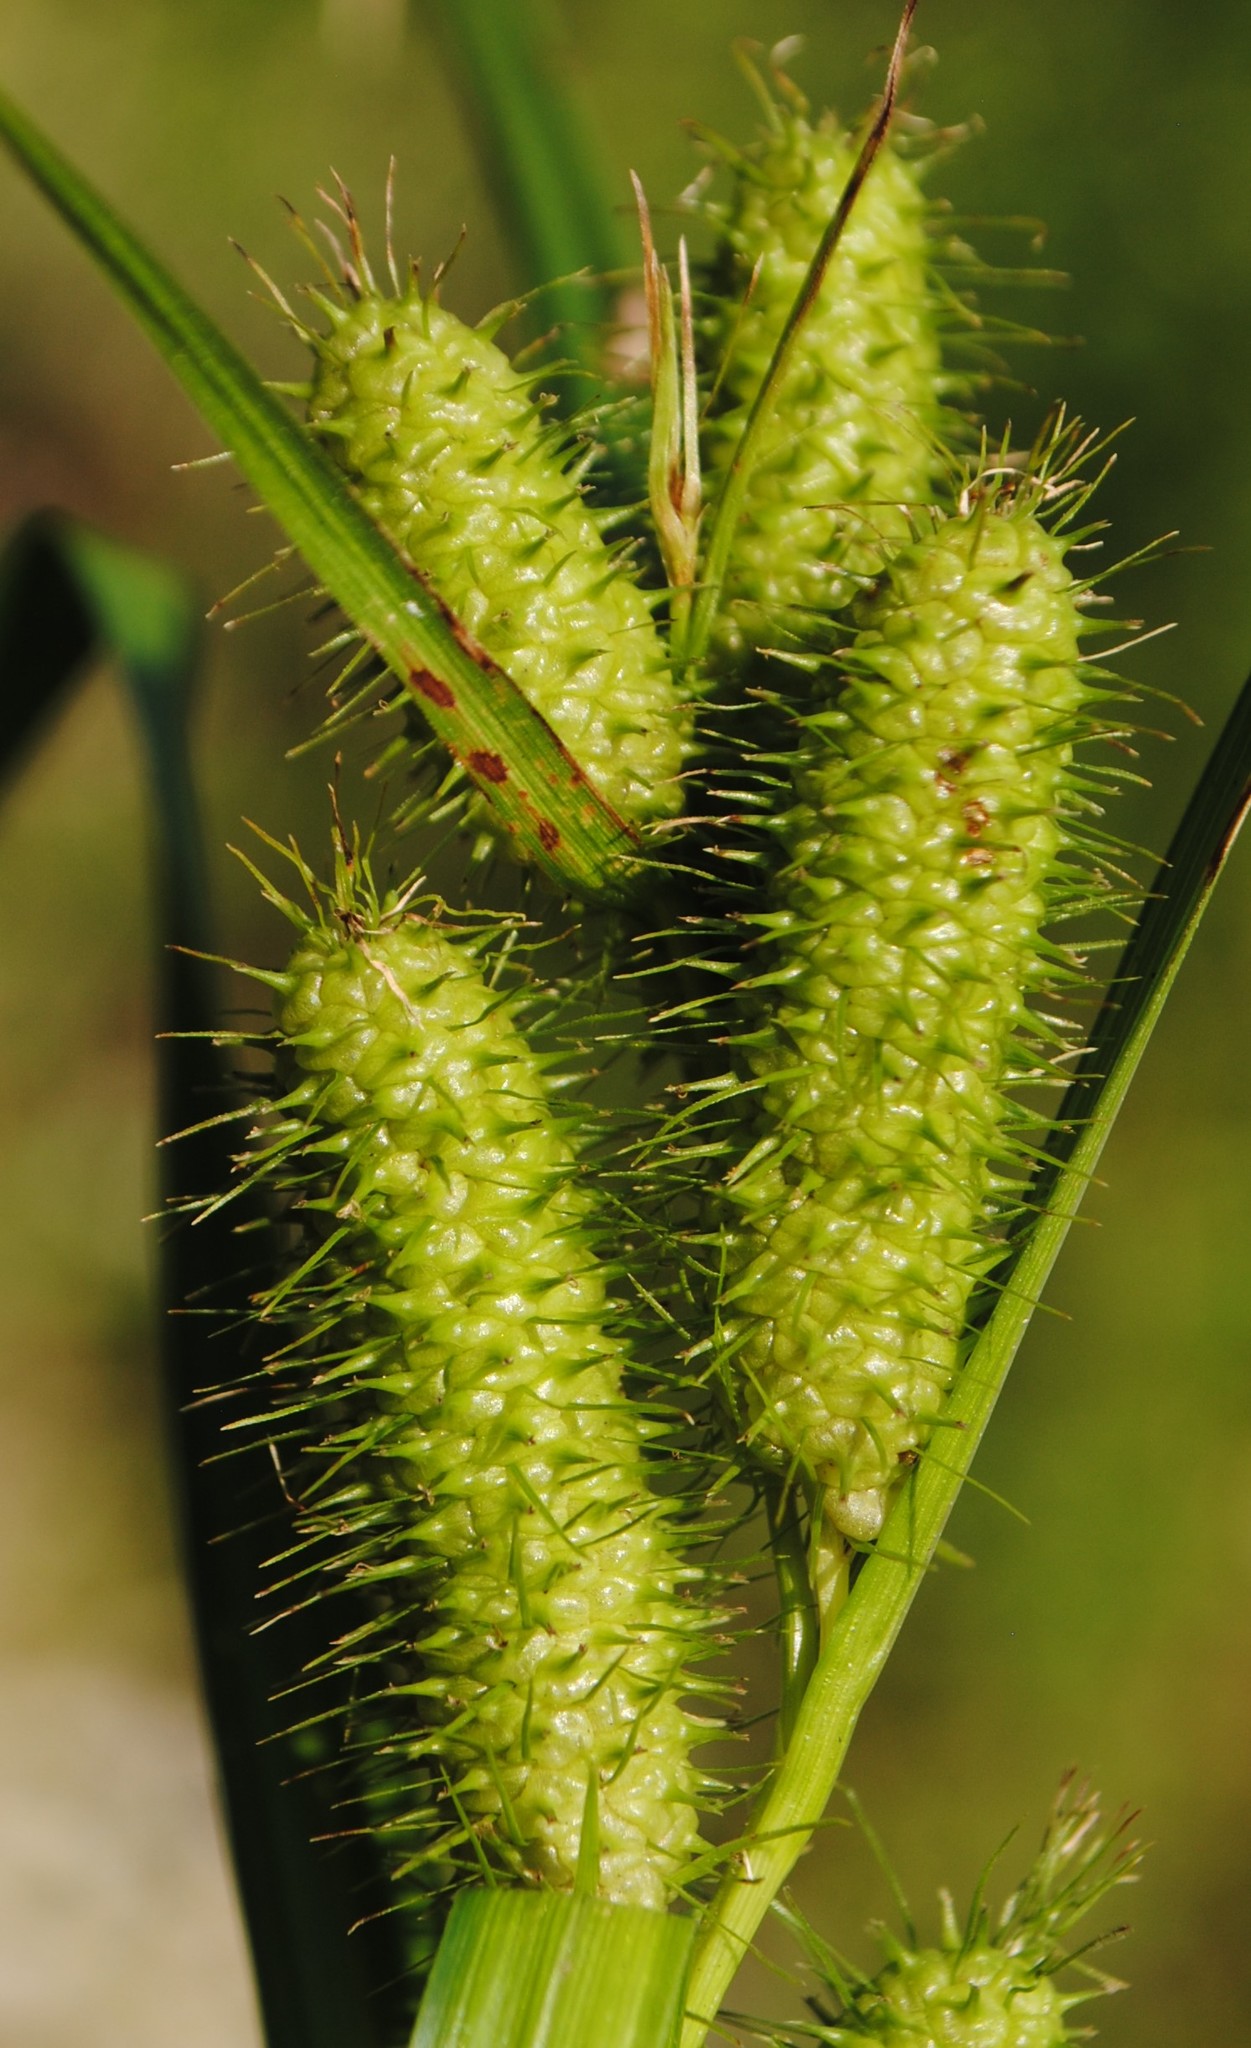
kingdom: Plantae
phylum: Tracheophyta
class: Liliopsida
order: Poales
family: Cyperaceae
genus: Carex
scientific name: Carex frankii
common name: Frank's sedge
